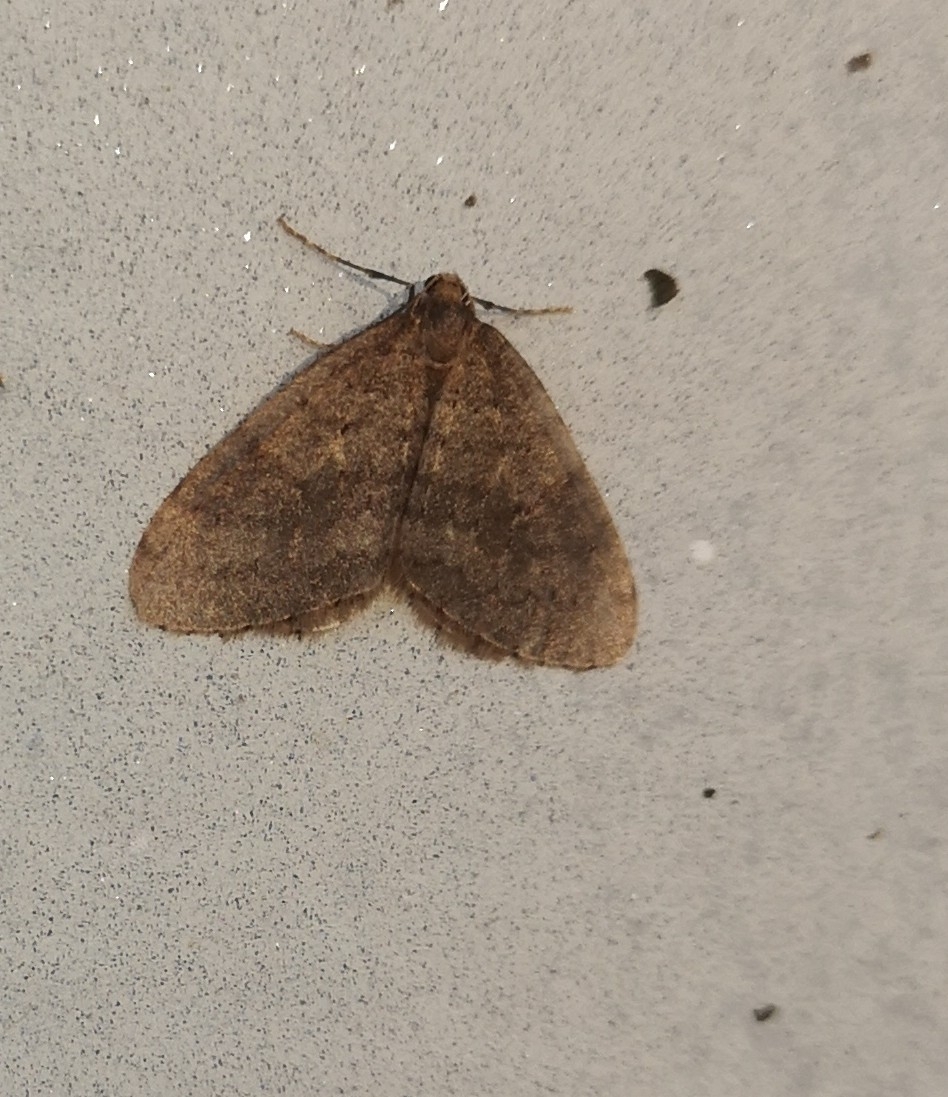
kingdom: Animalia
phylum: Arthropoda
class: Insecta
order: Lepidoptera
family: Geometridae
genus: Operophtera
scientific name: Operophtera brumata
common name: Winter moth
